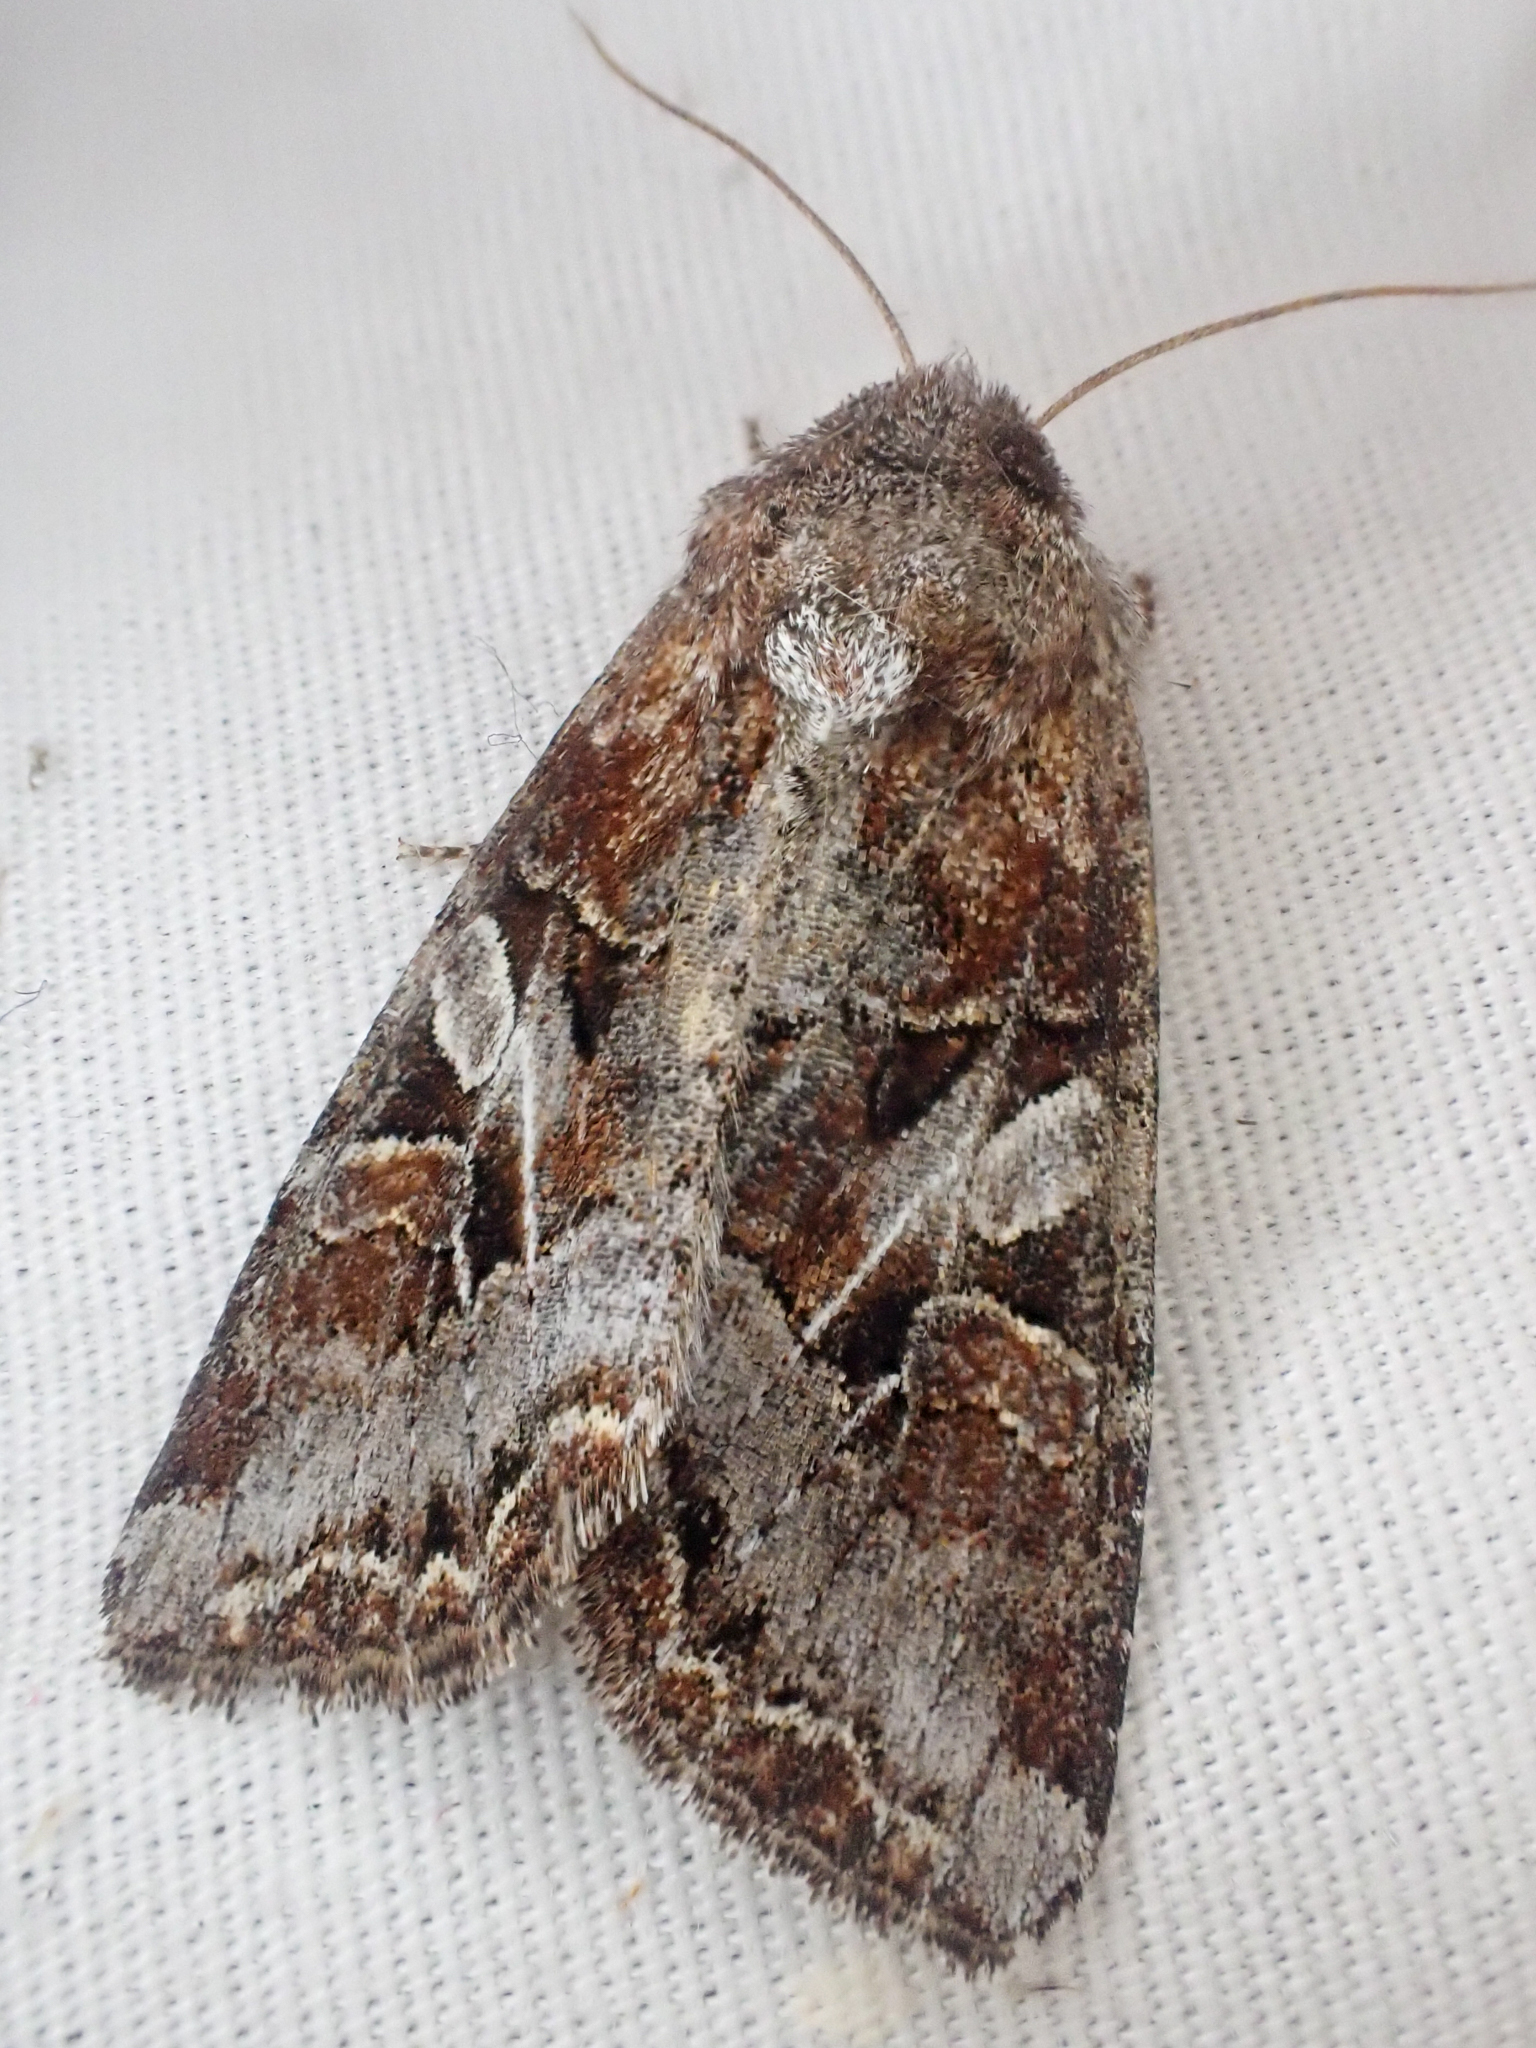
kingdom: Animalia
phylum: Arthropoda
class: Insecta
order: Lepidoptera
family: Noctuidae
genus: Trichordestra
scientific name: Trichordestra tacoma
